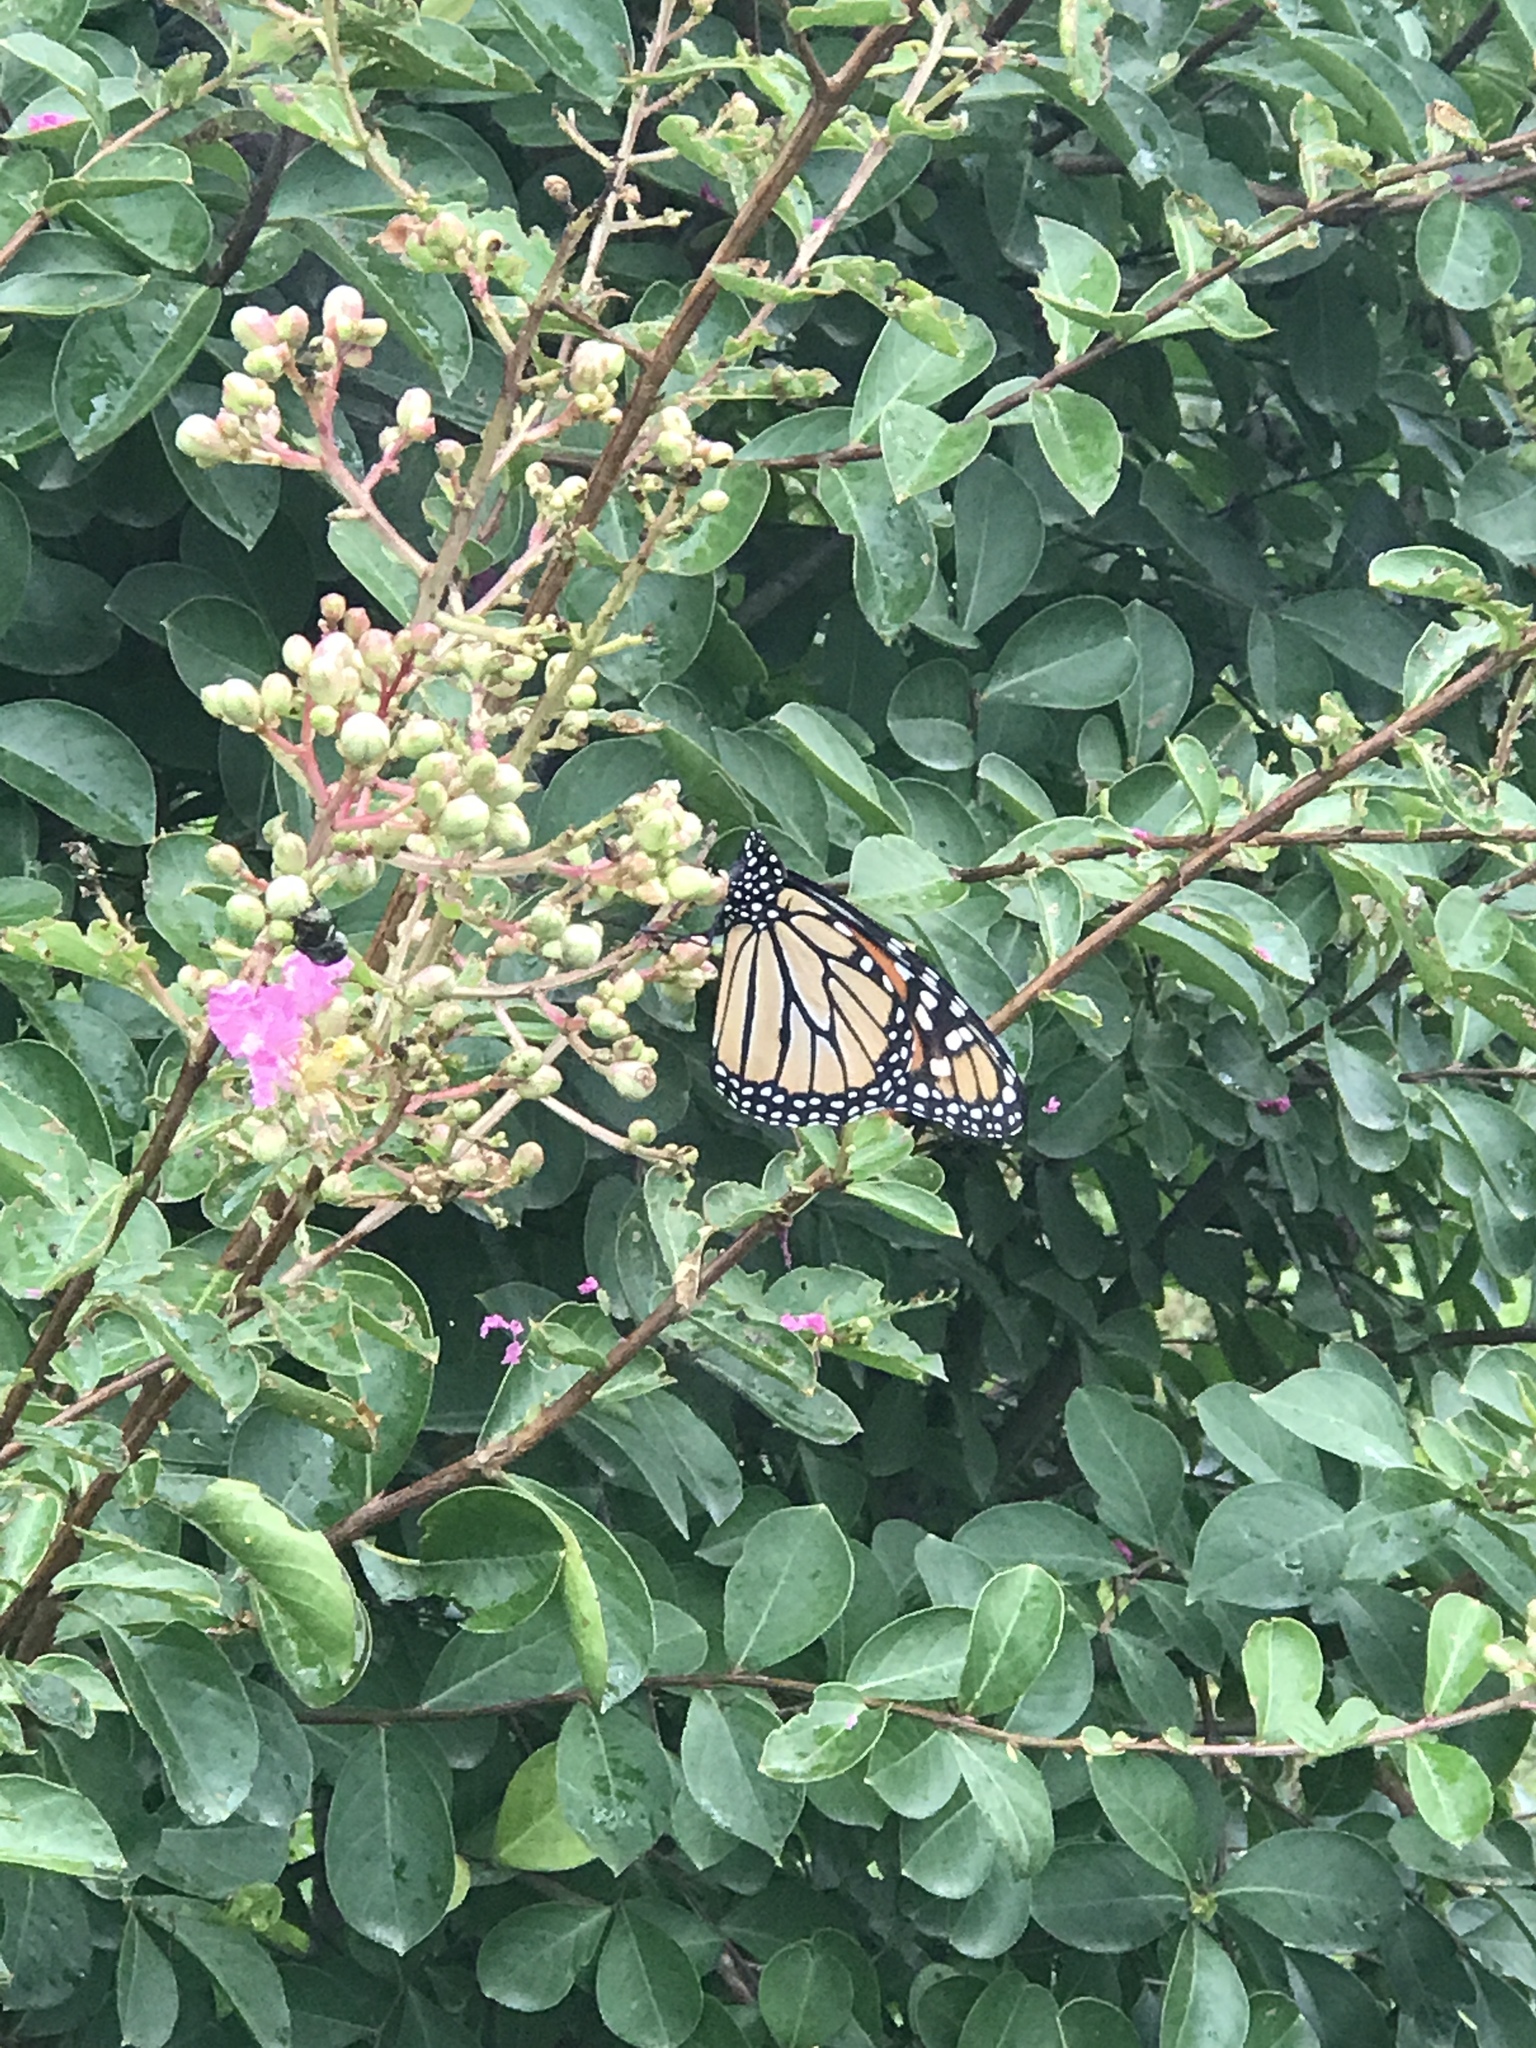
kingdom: Animalia
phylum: Arthropoda
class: Insecta
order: Lepidoptera
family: Nymphalidae
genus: Danaus
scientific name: Danaus plexippus
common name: Monarch
